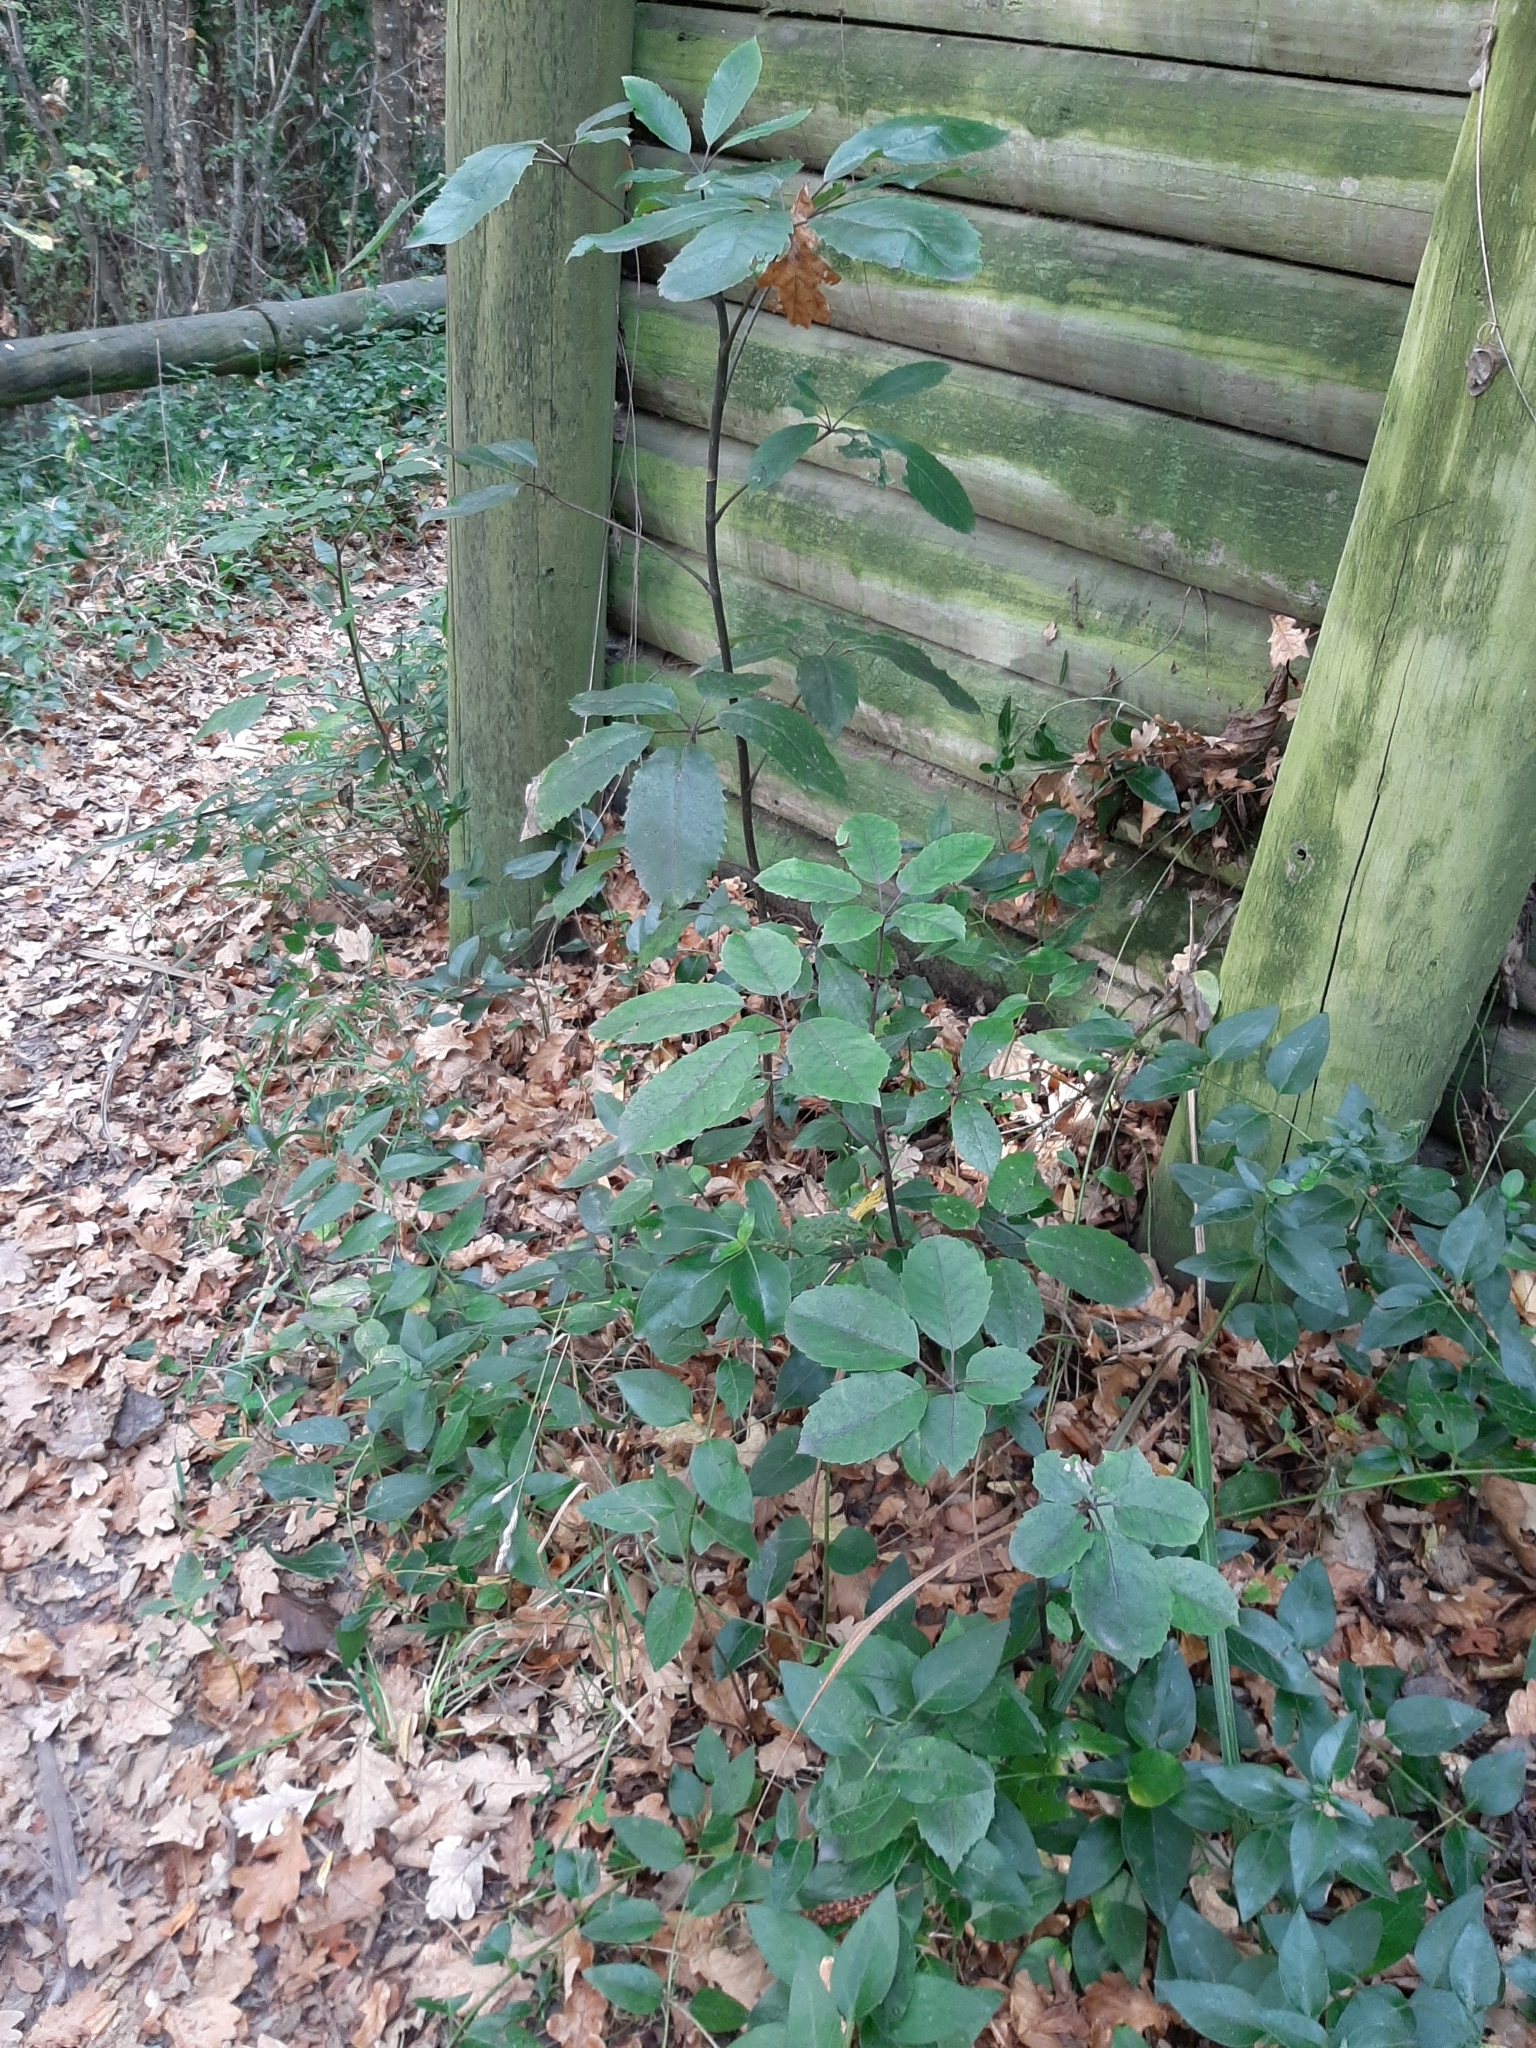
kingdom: Plantae
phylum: Tracheophyta
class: Magnoliopsida
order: Apiales
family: Araliaceae
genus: Neopanax
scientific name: Neopanax arboreus
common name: Five-fingers
